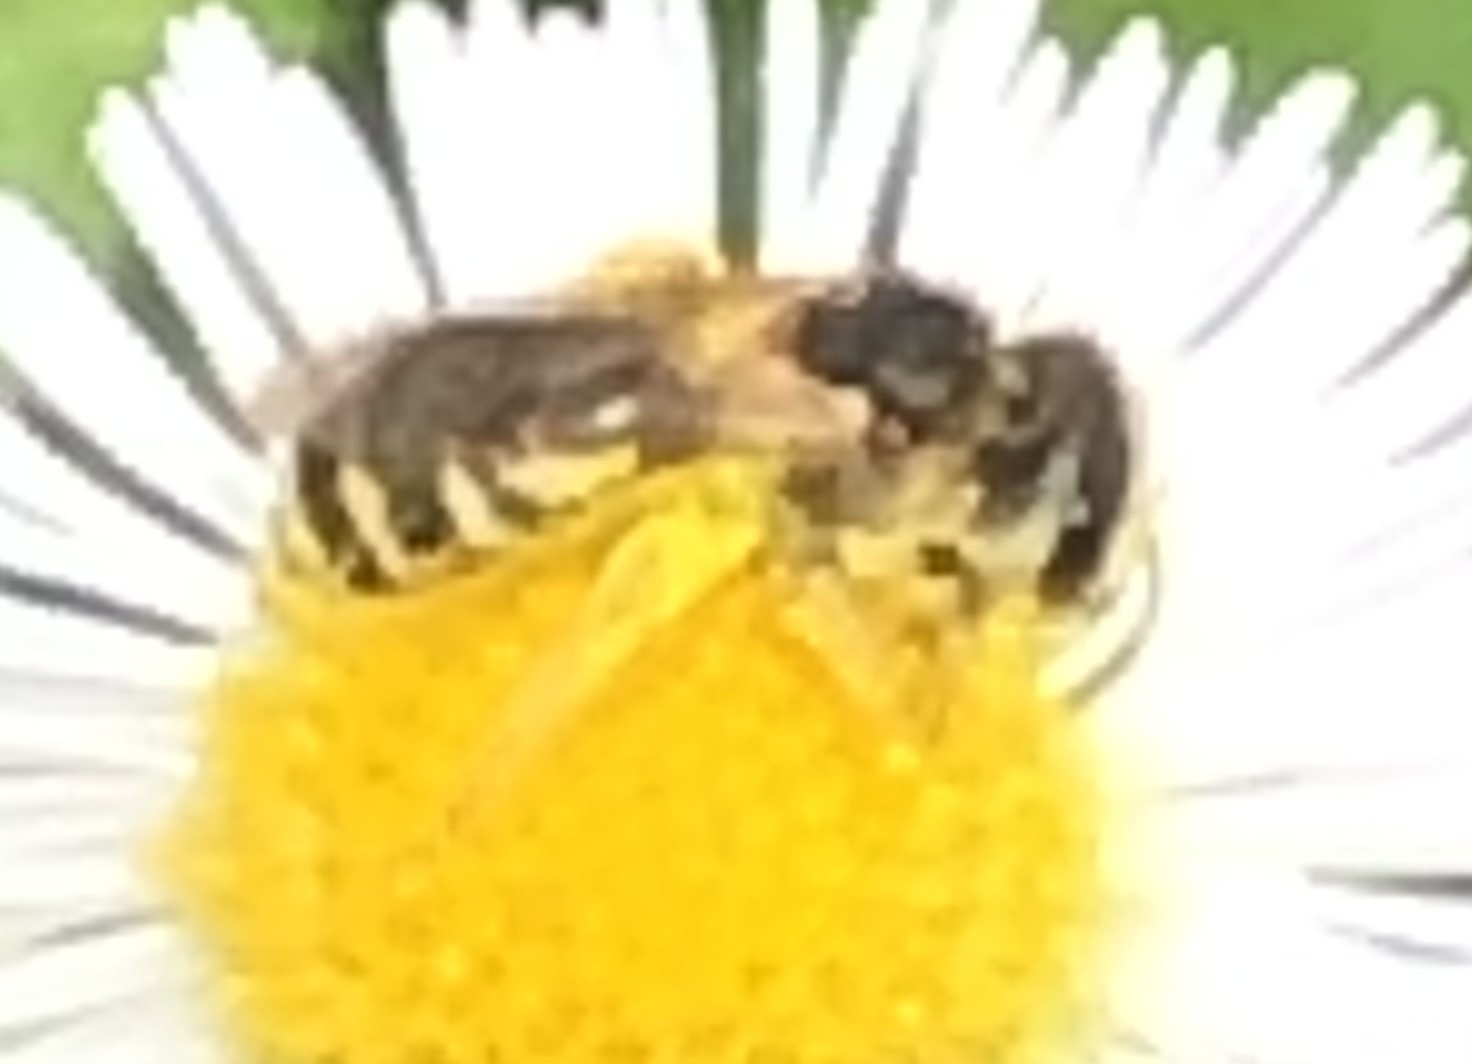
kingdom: Animalia
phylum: Arthropoda
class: Insecta
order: Hymenoptera
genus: Odontalictus
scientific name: Odontalictus
